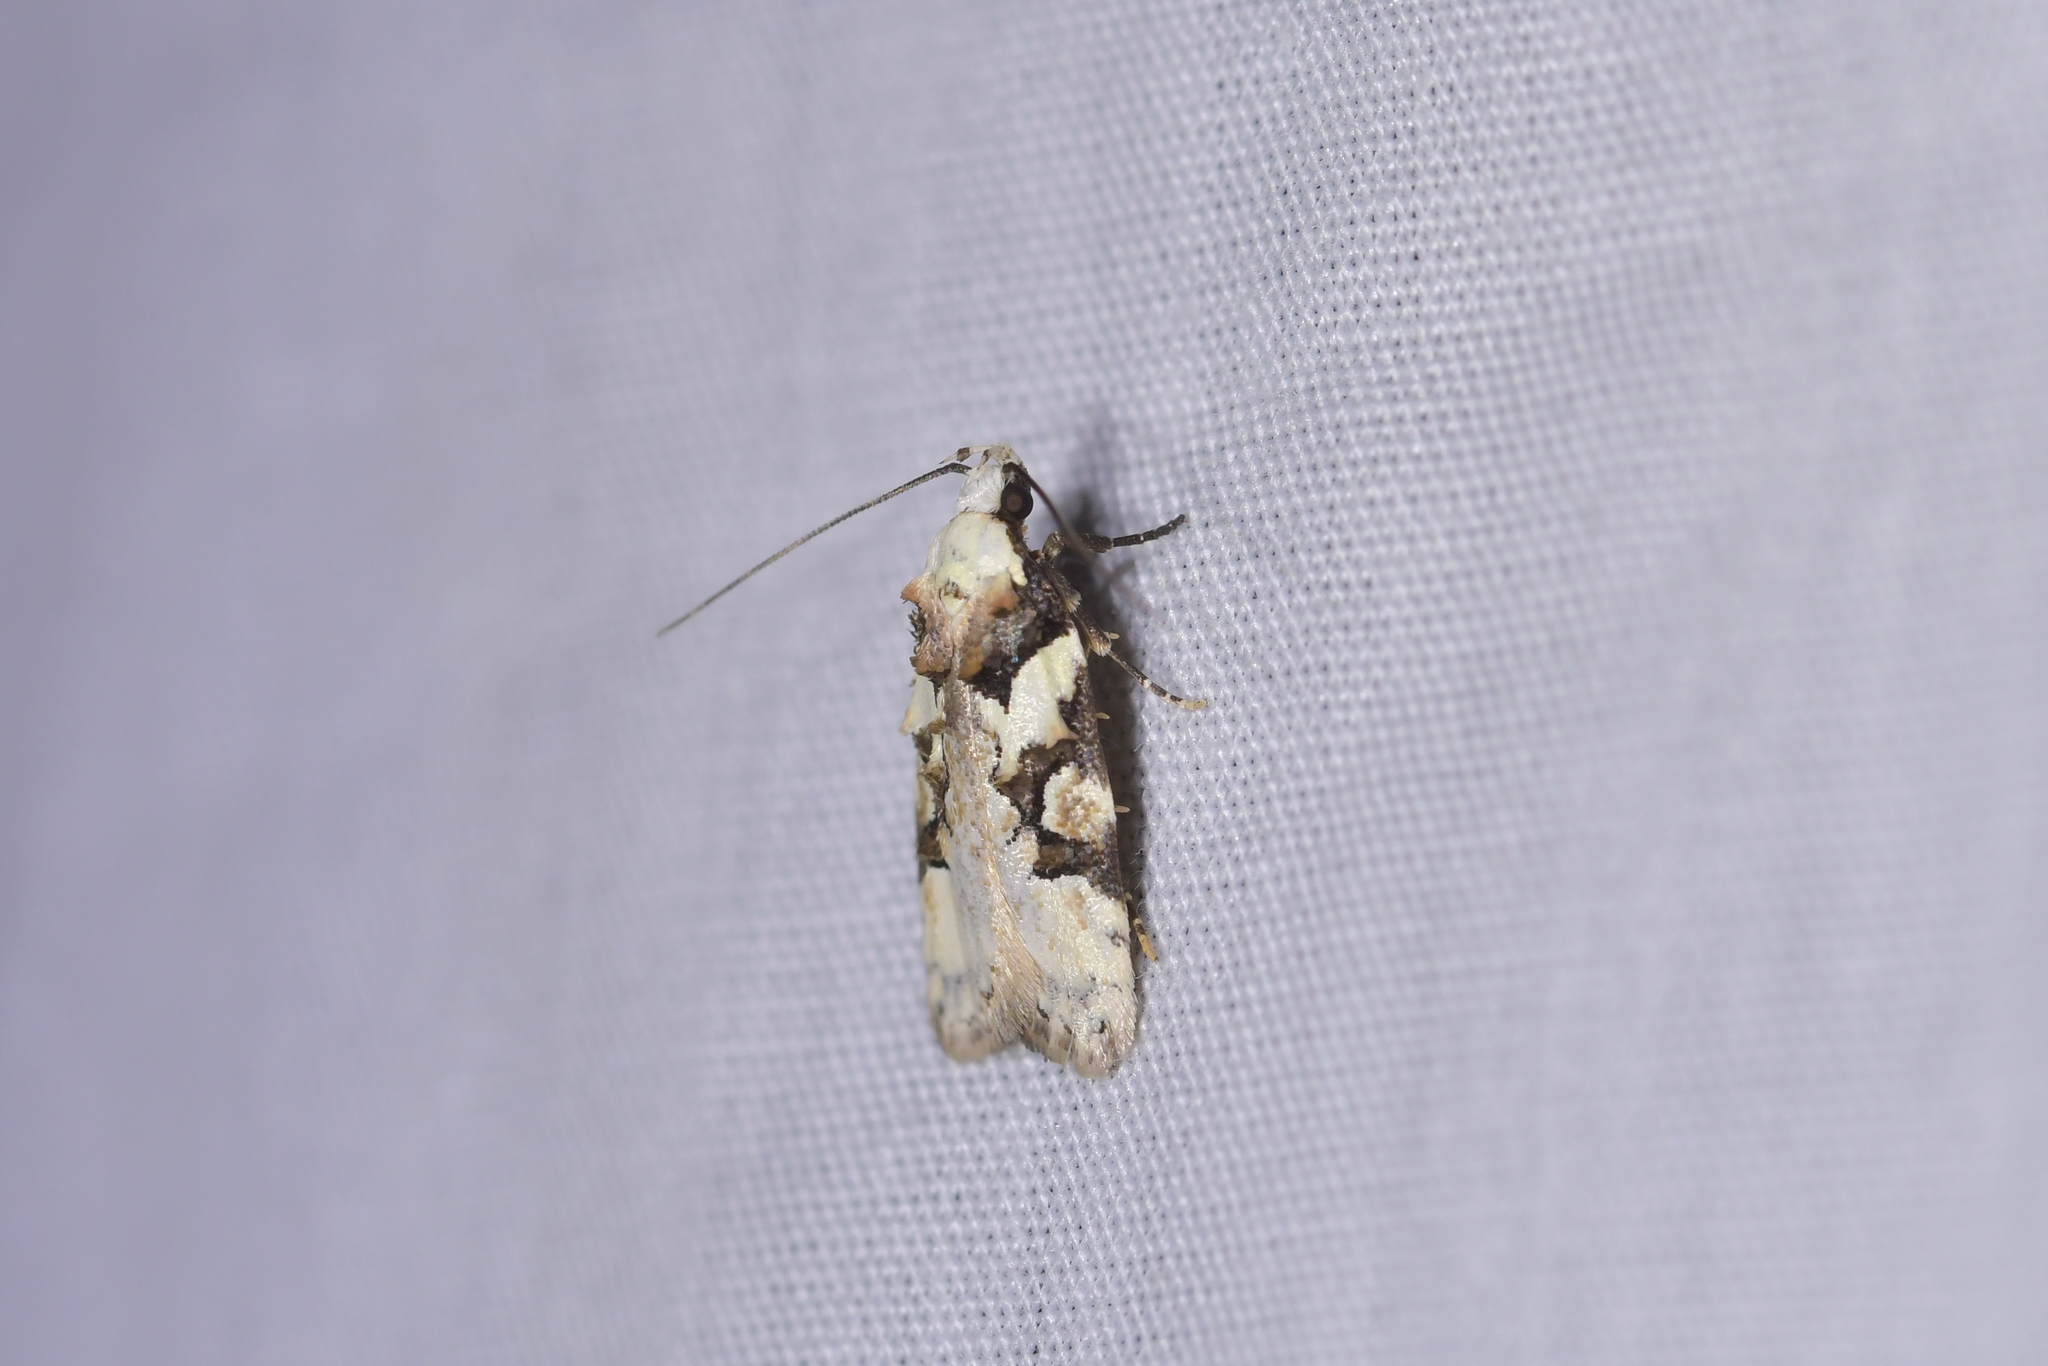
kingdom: Animalia
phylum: Arthropoda
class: Insecta
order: Lepidoptera
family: Oecophoridae
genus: Izatha
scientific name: Izatha epiphanes
